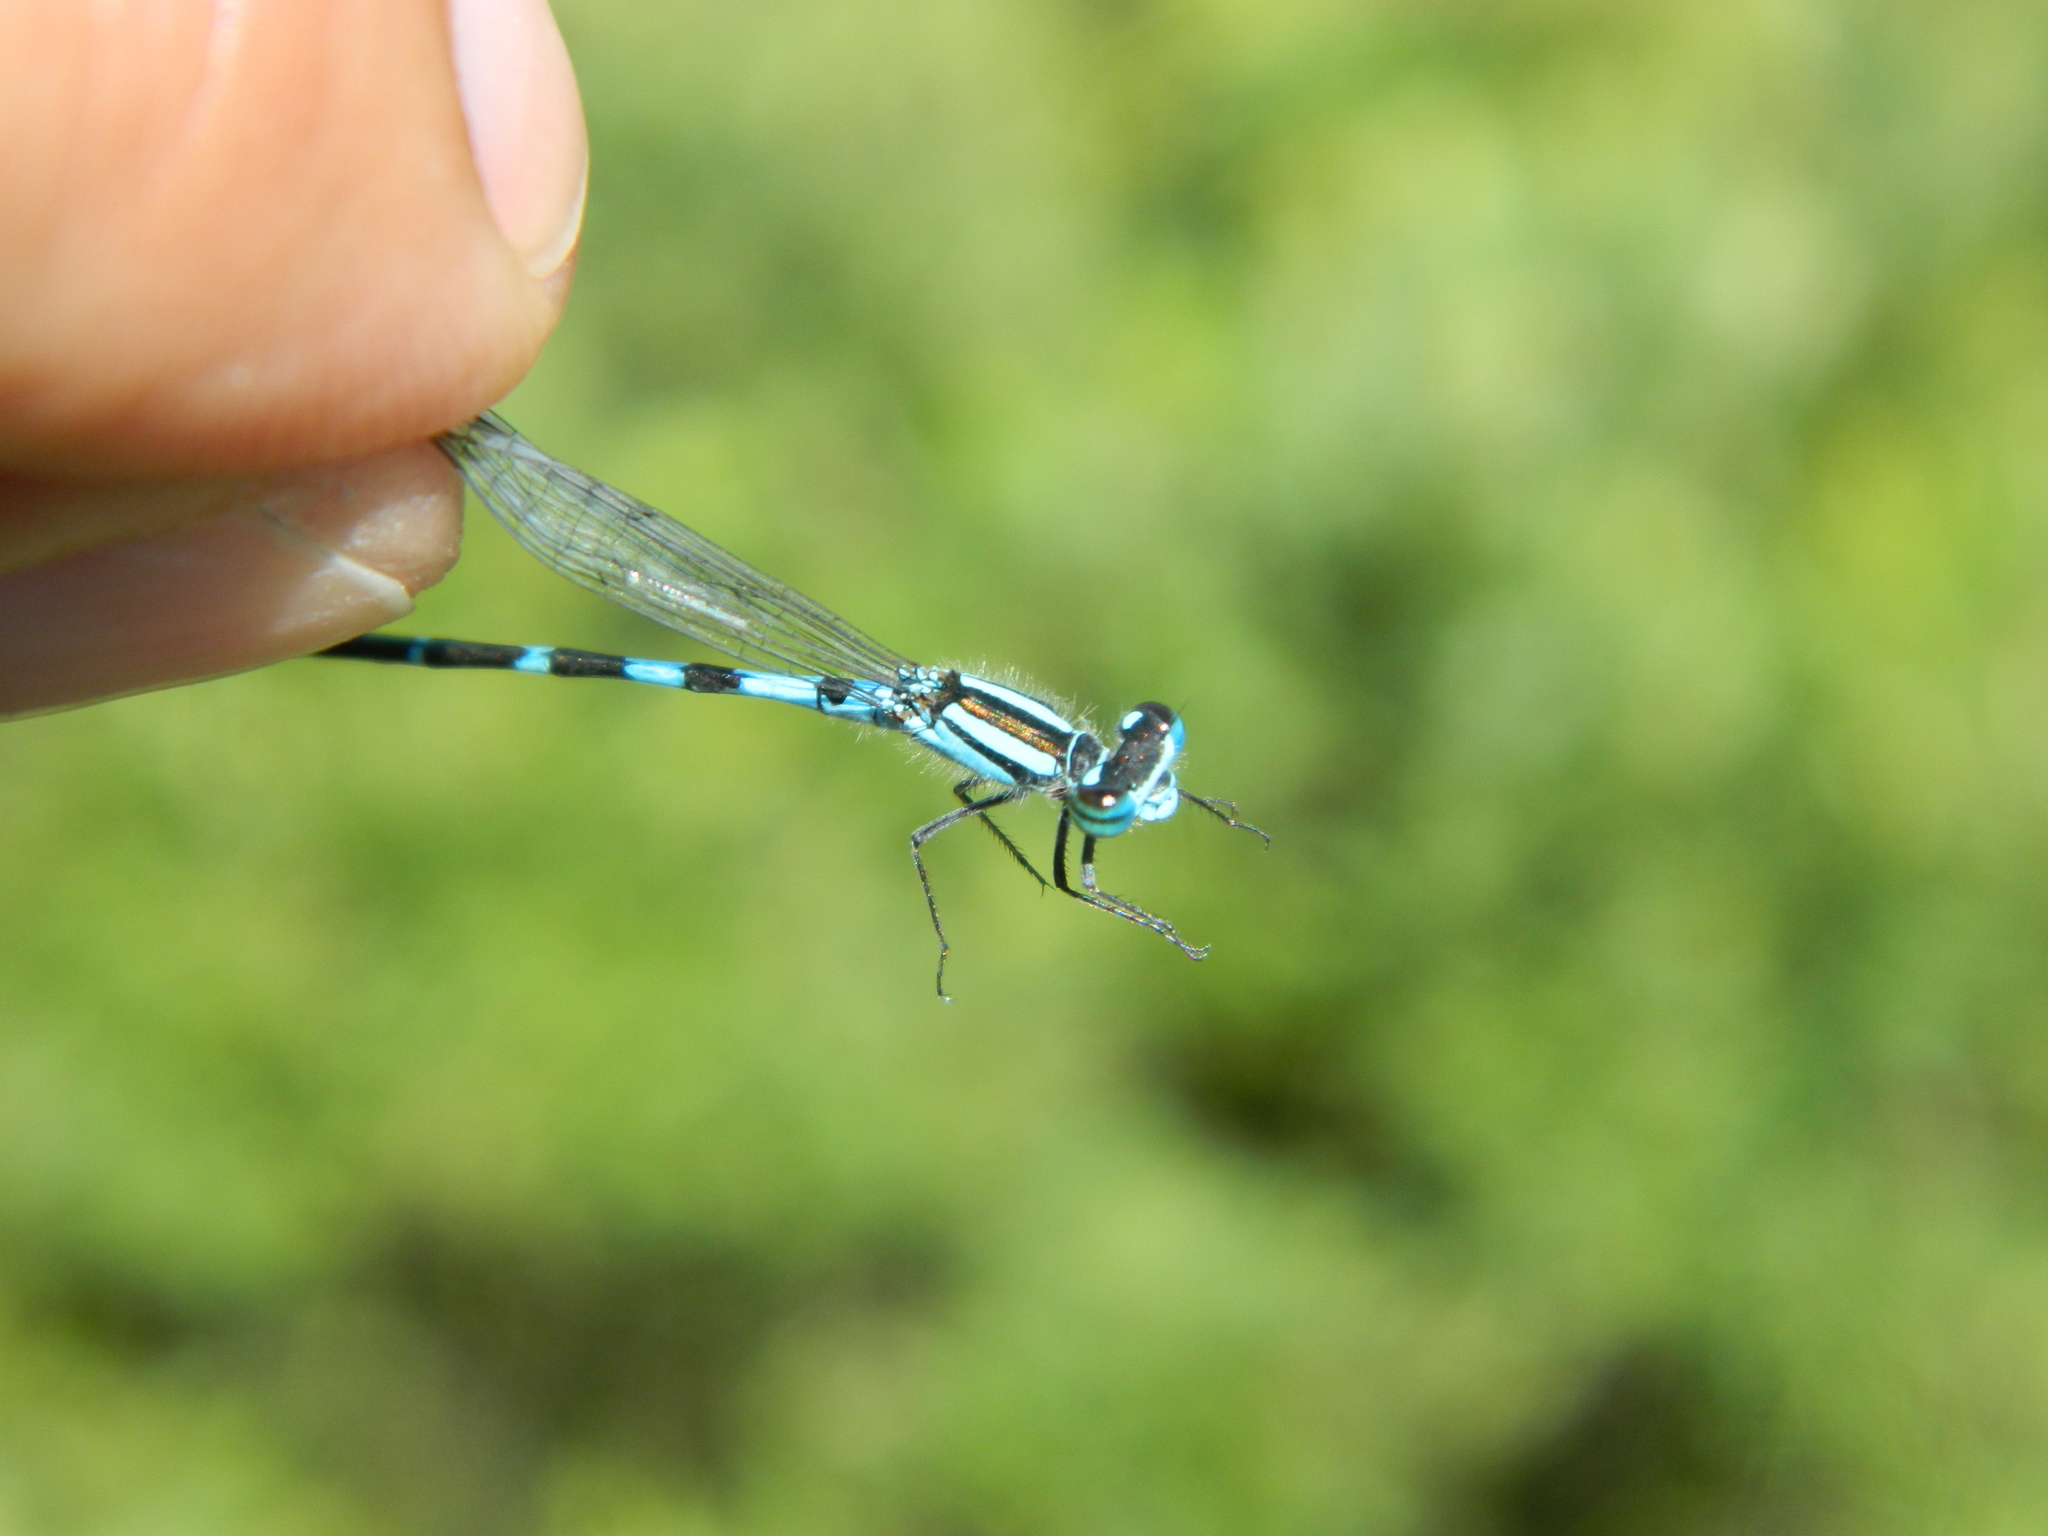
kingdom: Animalia
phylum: Arthropoda
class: Insecta
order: Odonata
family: Coenagrionidae
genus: Enallagma
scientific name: Enallagma ebrium
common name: Marsh bluet
